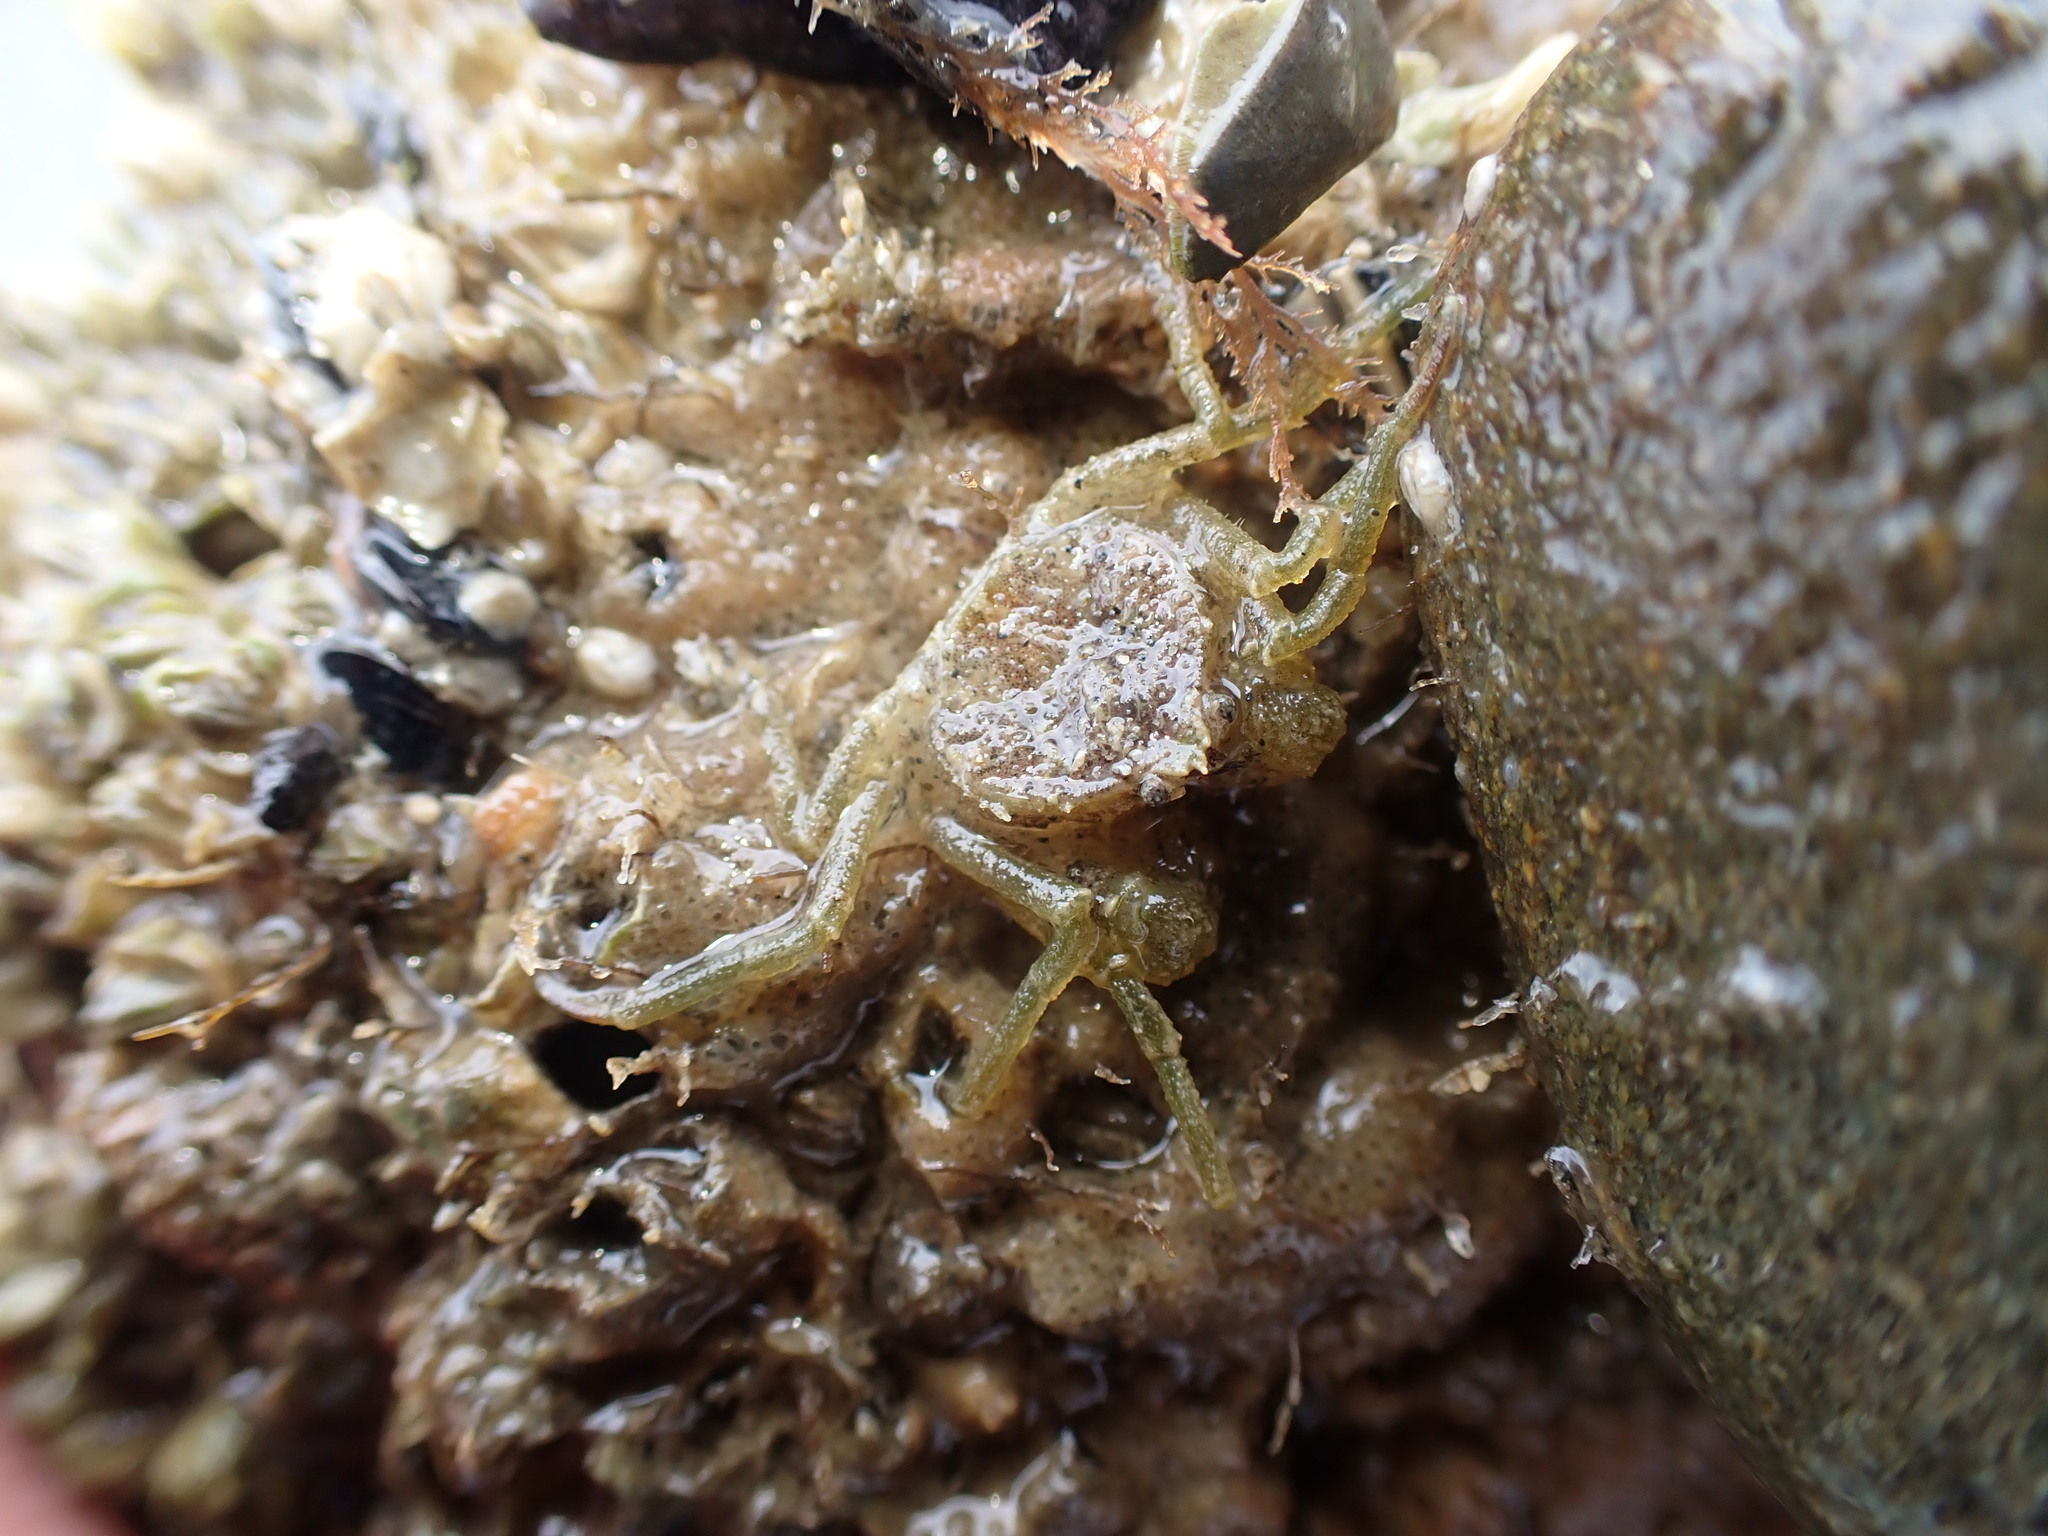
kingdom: Animalia
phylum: Arthropoda
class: Malacostraca
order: Decapoda
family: Hymenosomatidae
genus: Halicarcinus
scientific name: Halicarcinus varius
